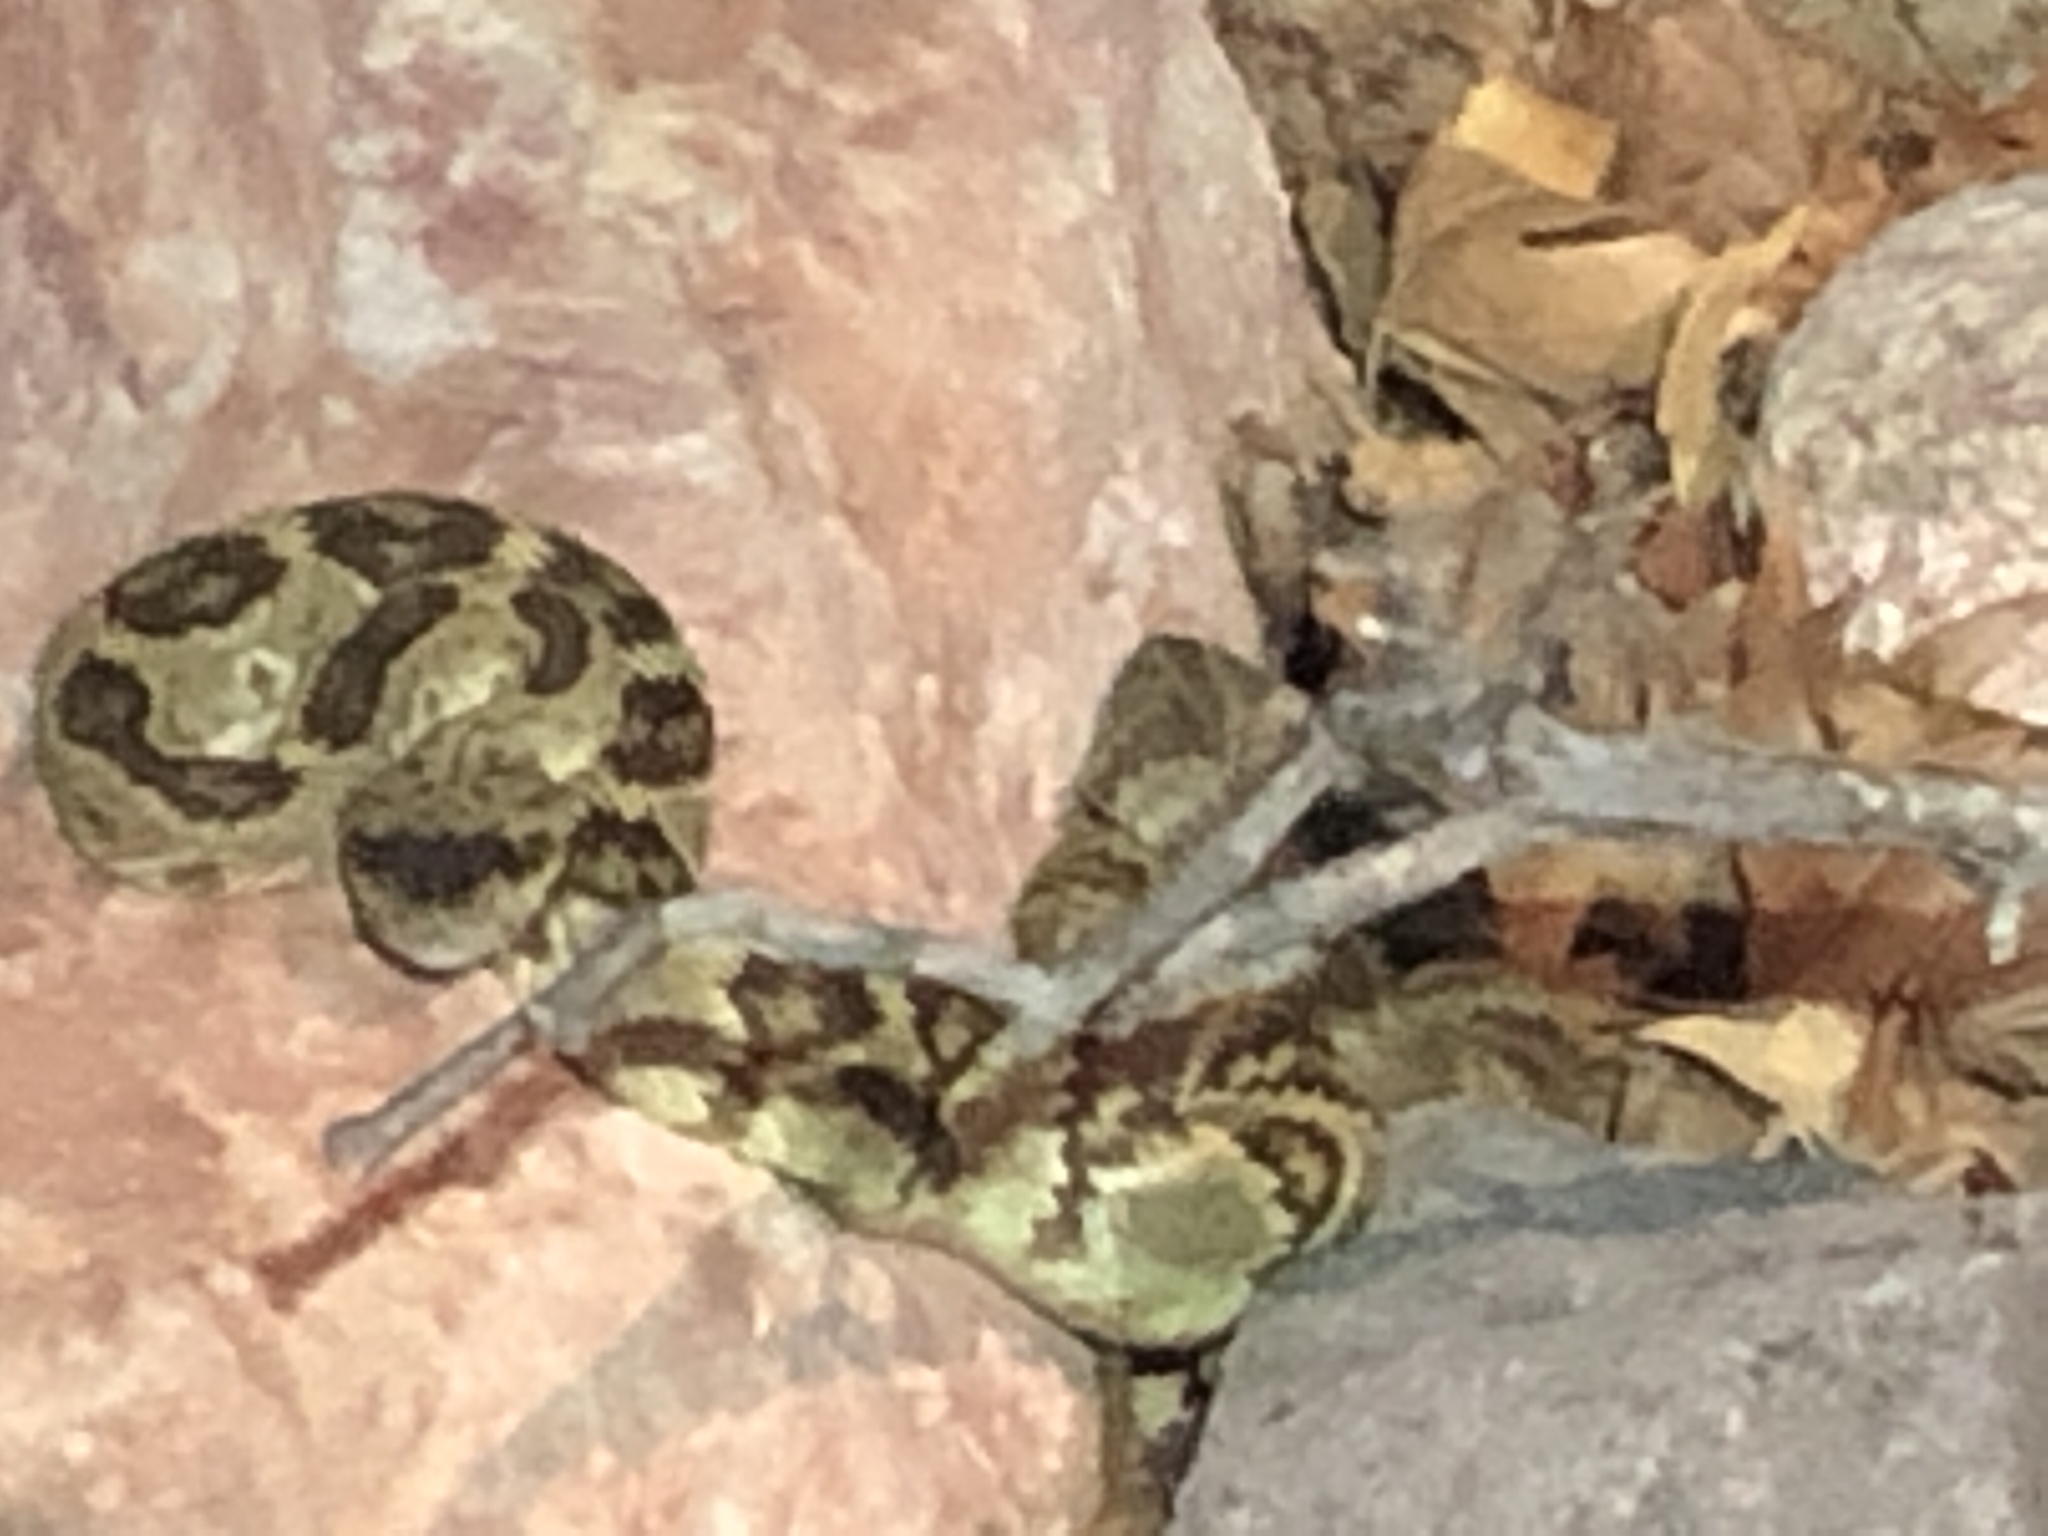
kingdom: Animalia
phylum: Chordata
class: Squamata
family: Viperidae
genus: Crotalus
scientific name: Crotalus molossus
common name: Black tailed rattlesnake
